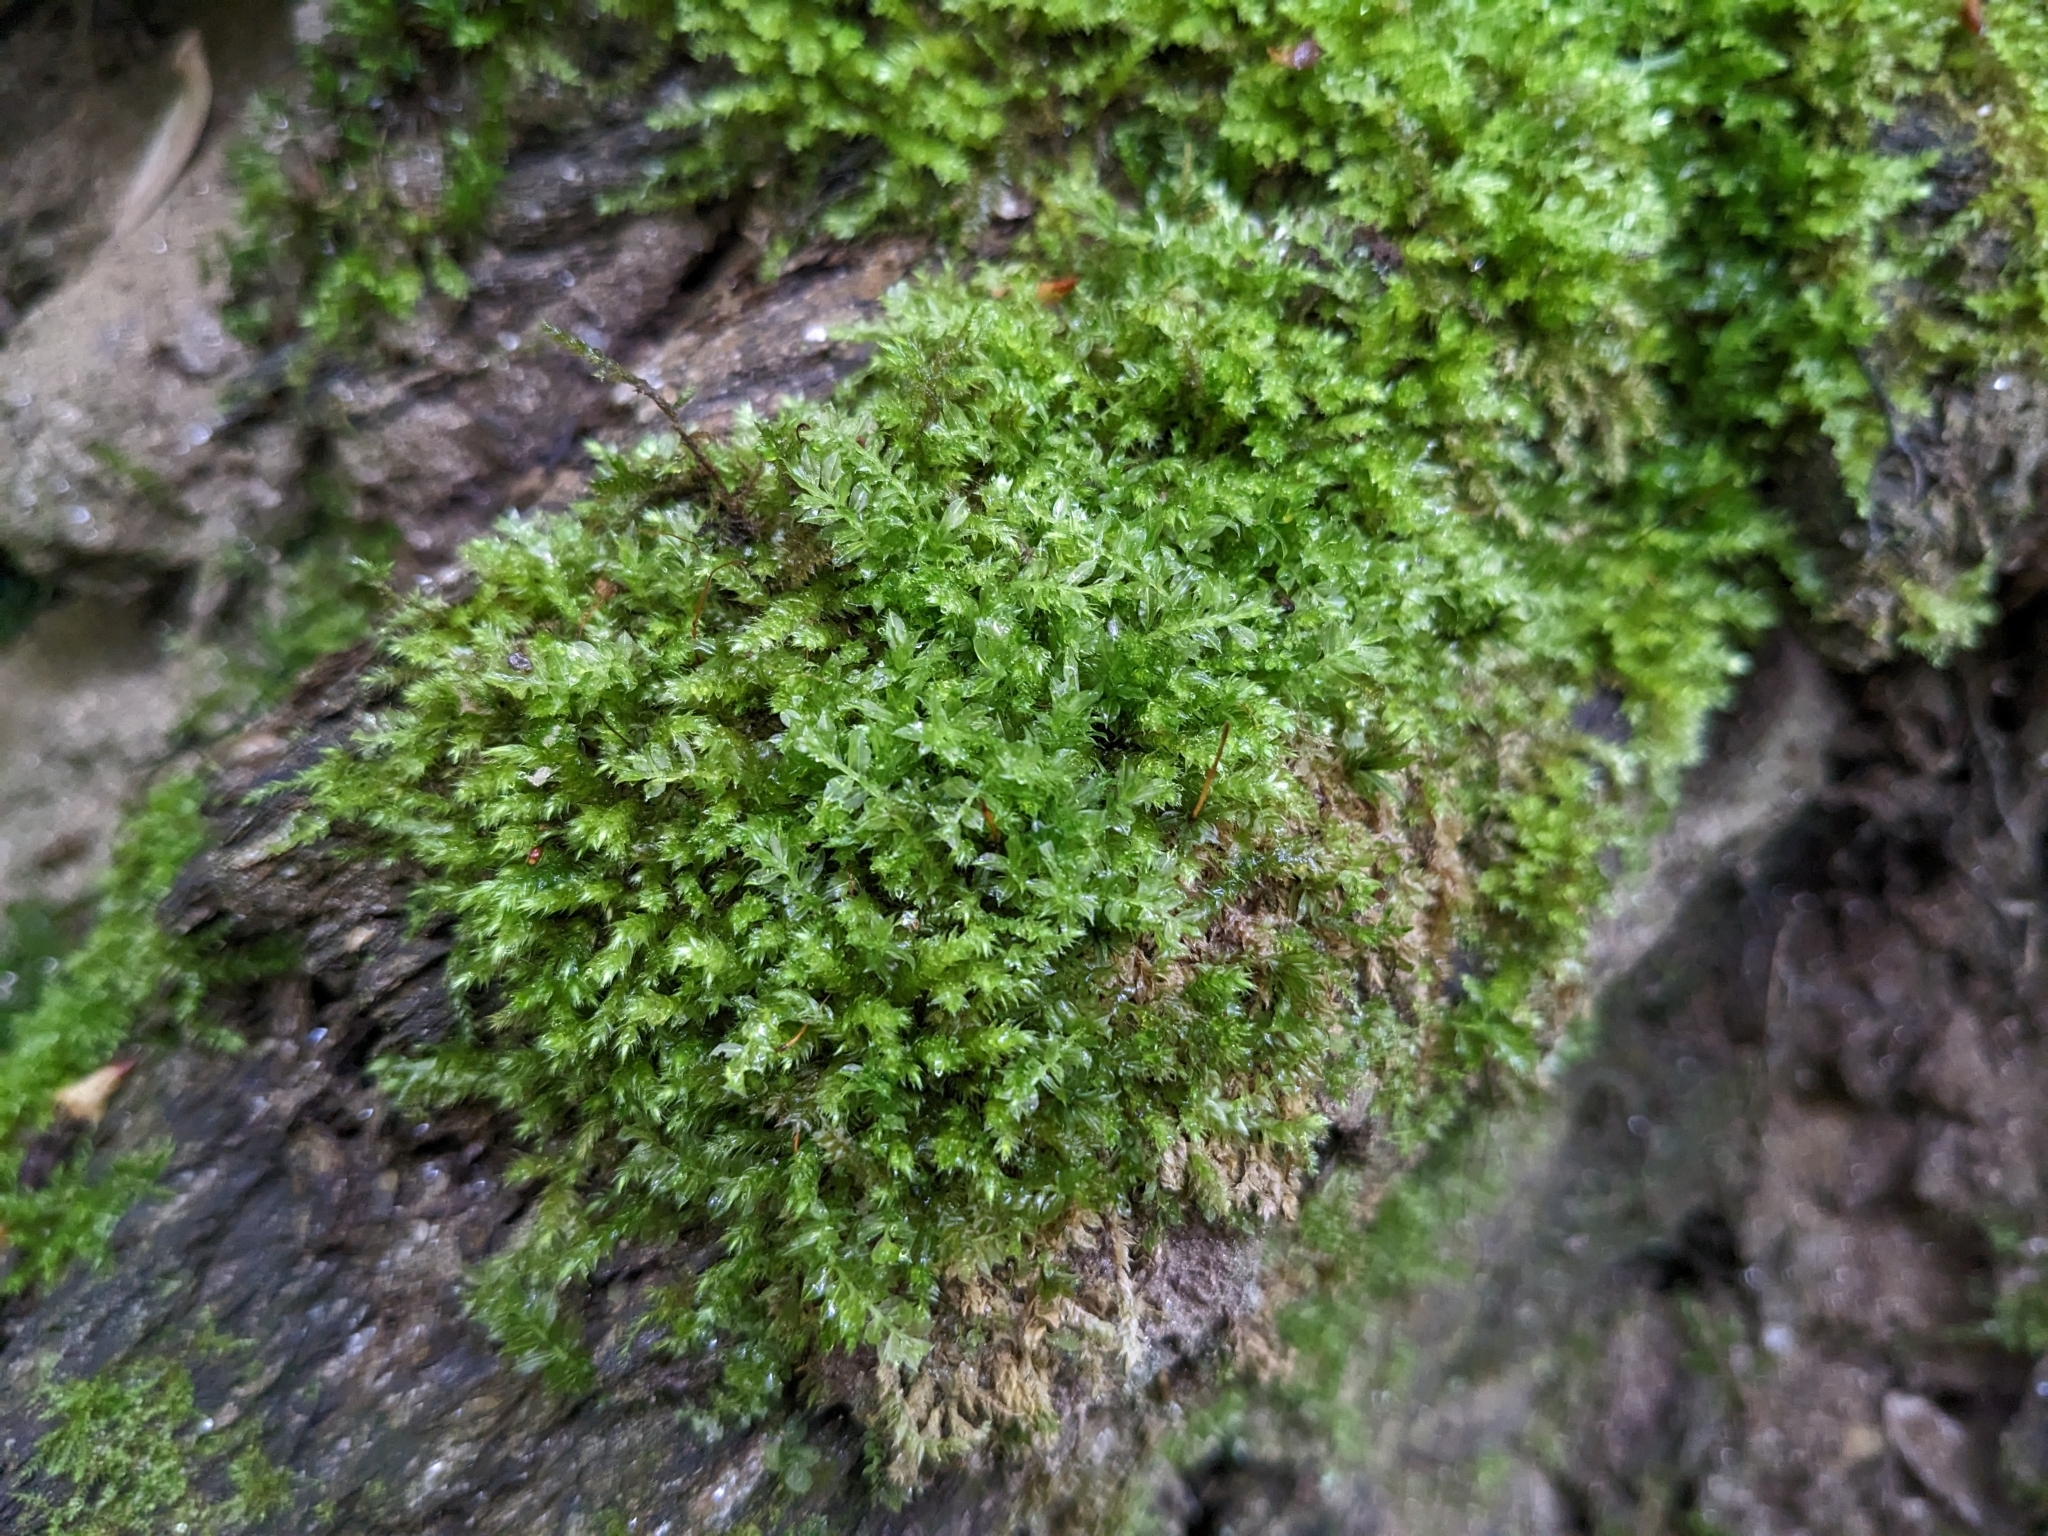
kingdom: Plantae
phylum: Bryophyta
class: Bryopsida
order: Hypnales
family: Neckeraceae
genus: Pseudanomodon
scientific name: Pseudanomodon attenuatus
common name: Tree-skirt moss
